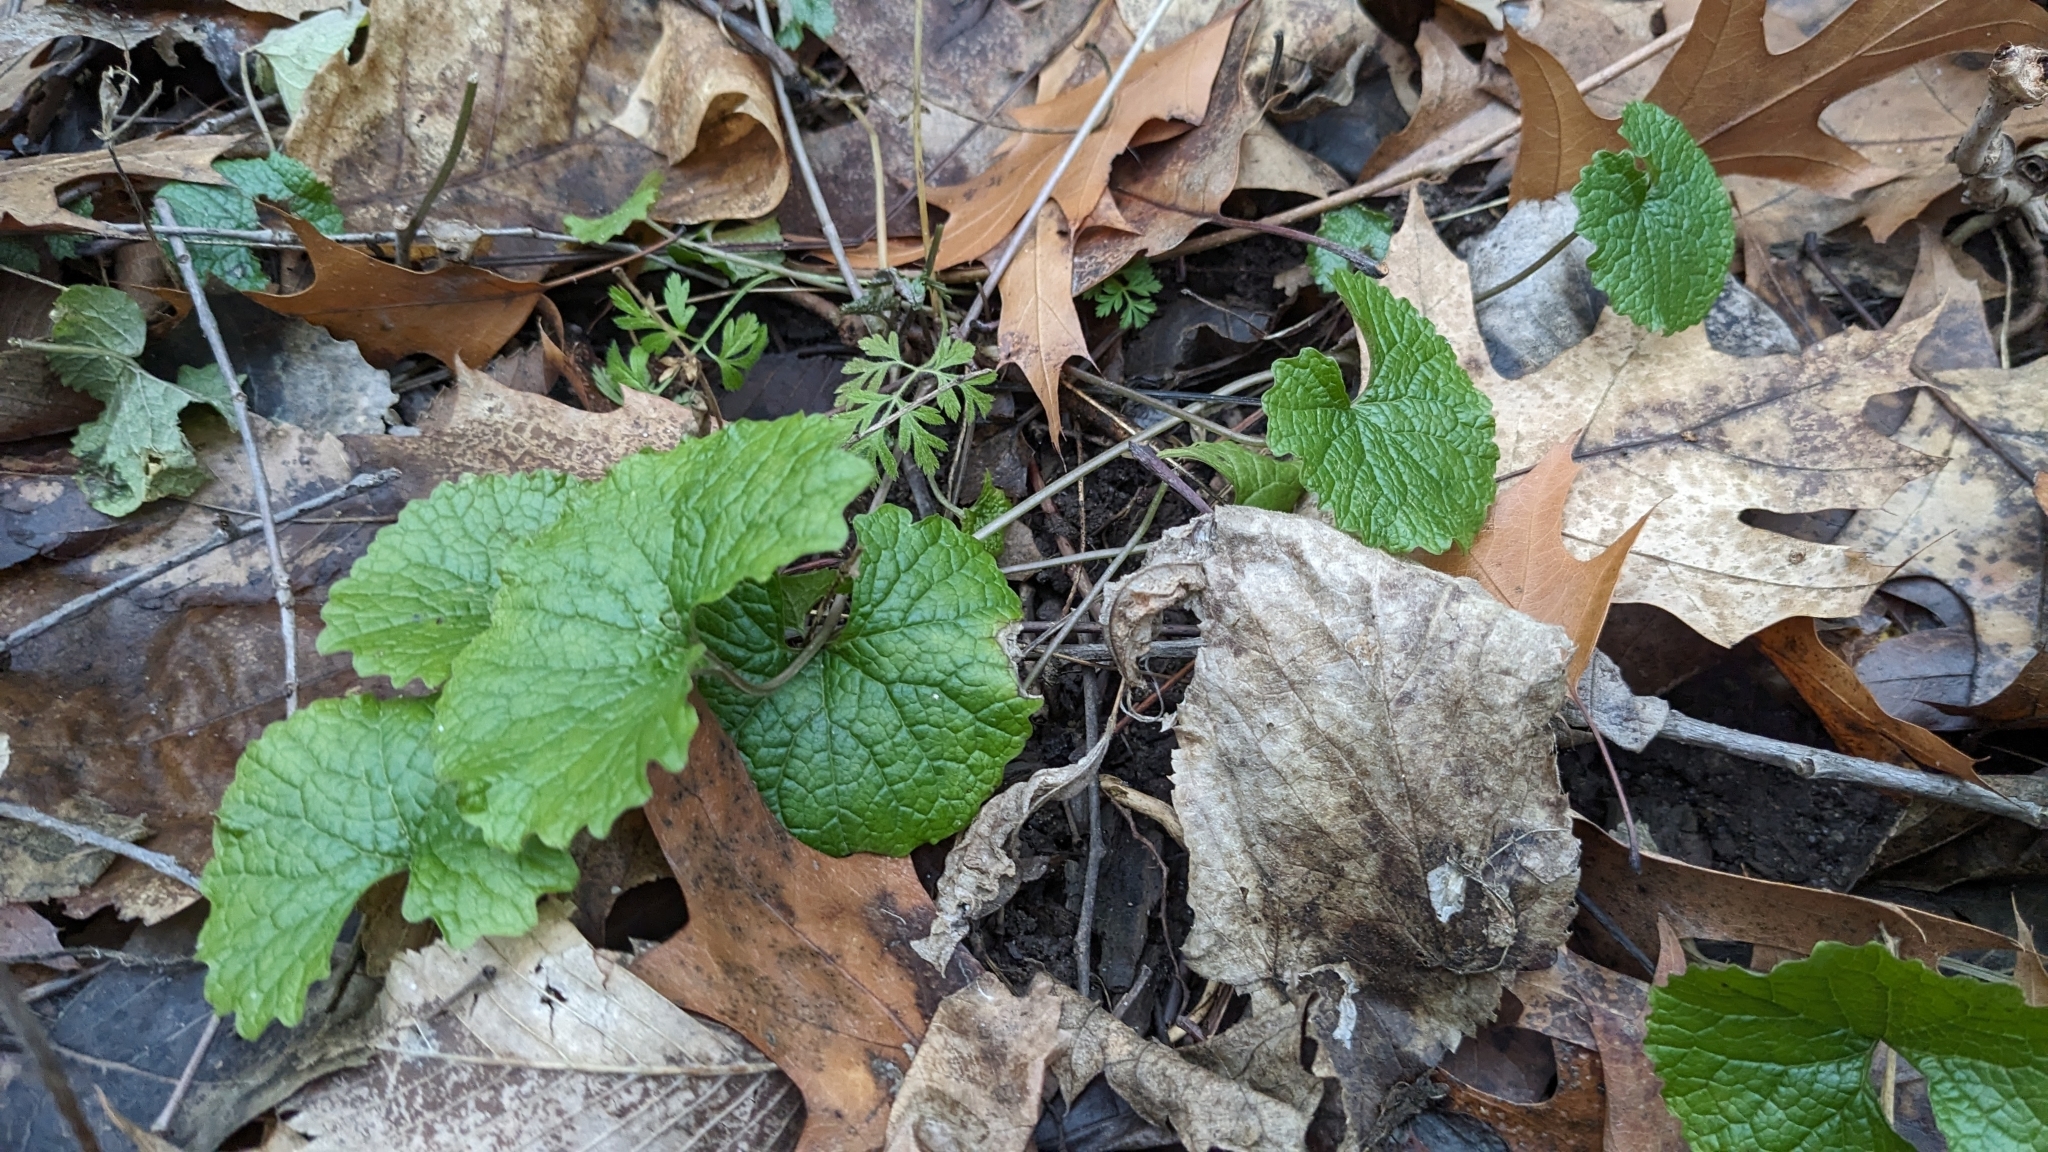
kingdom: Plantae
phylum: Tracheophyta
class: Magnoliopsida
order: Brassicales
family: Brassicaceae
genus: Alliaria
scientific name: Alliaria petiolata
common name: Garlic mustard
